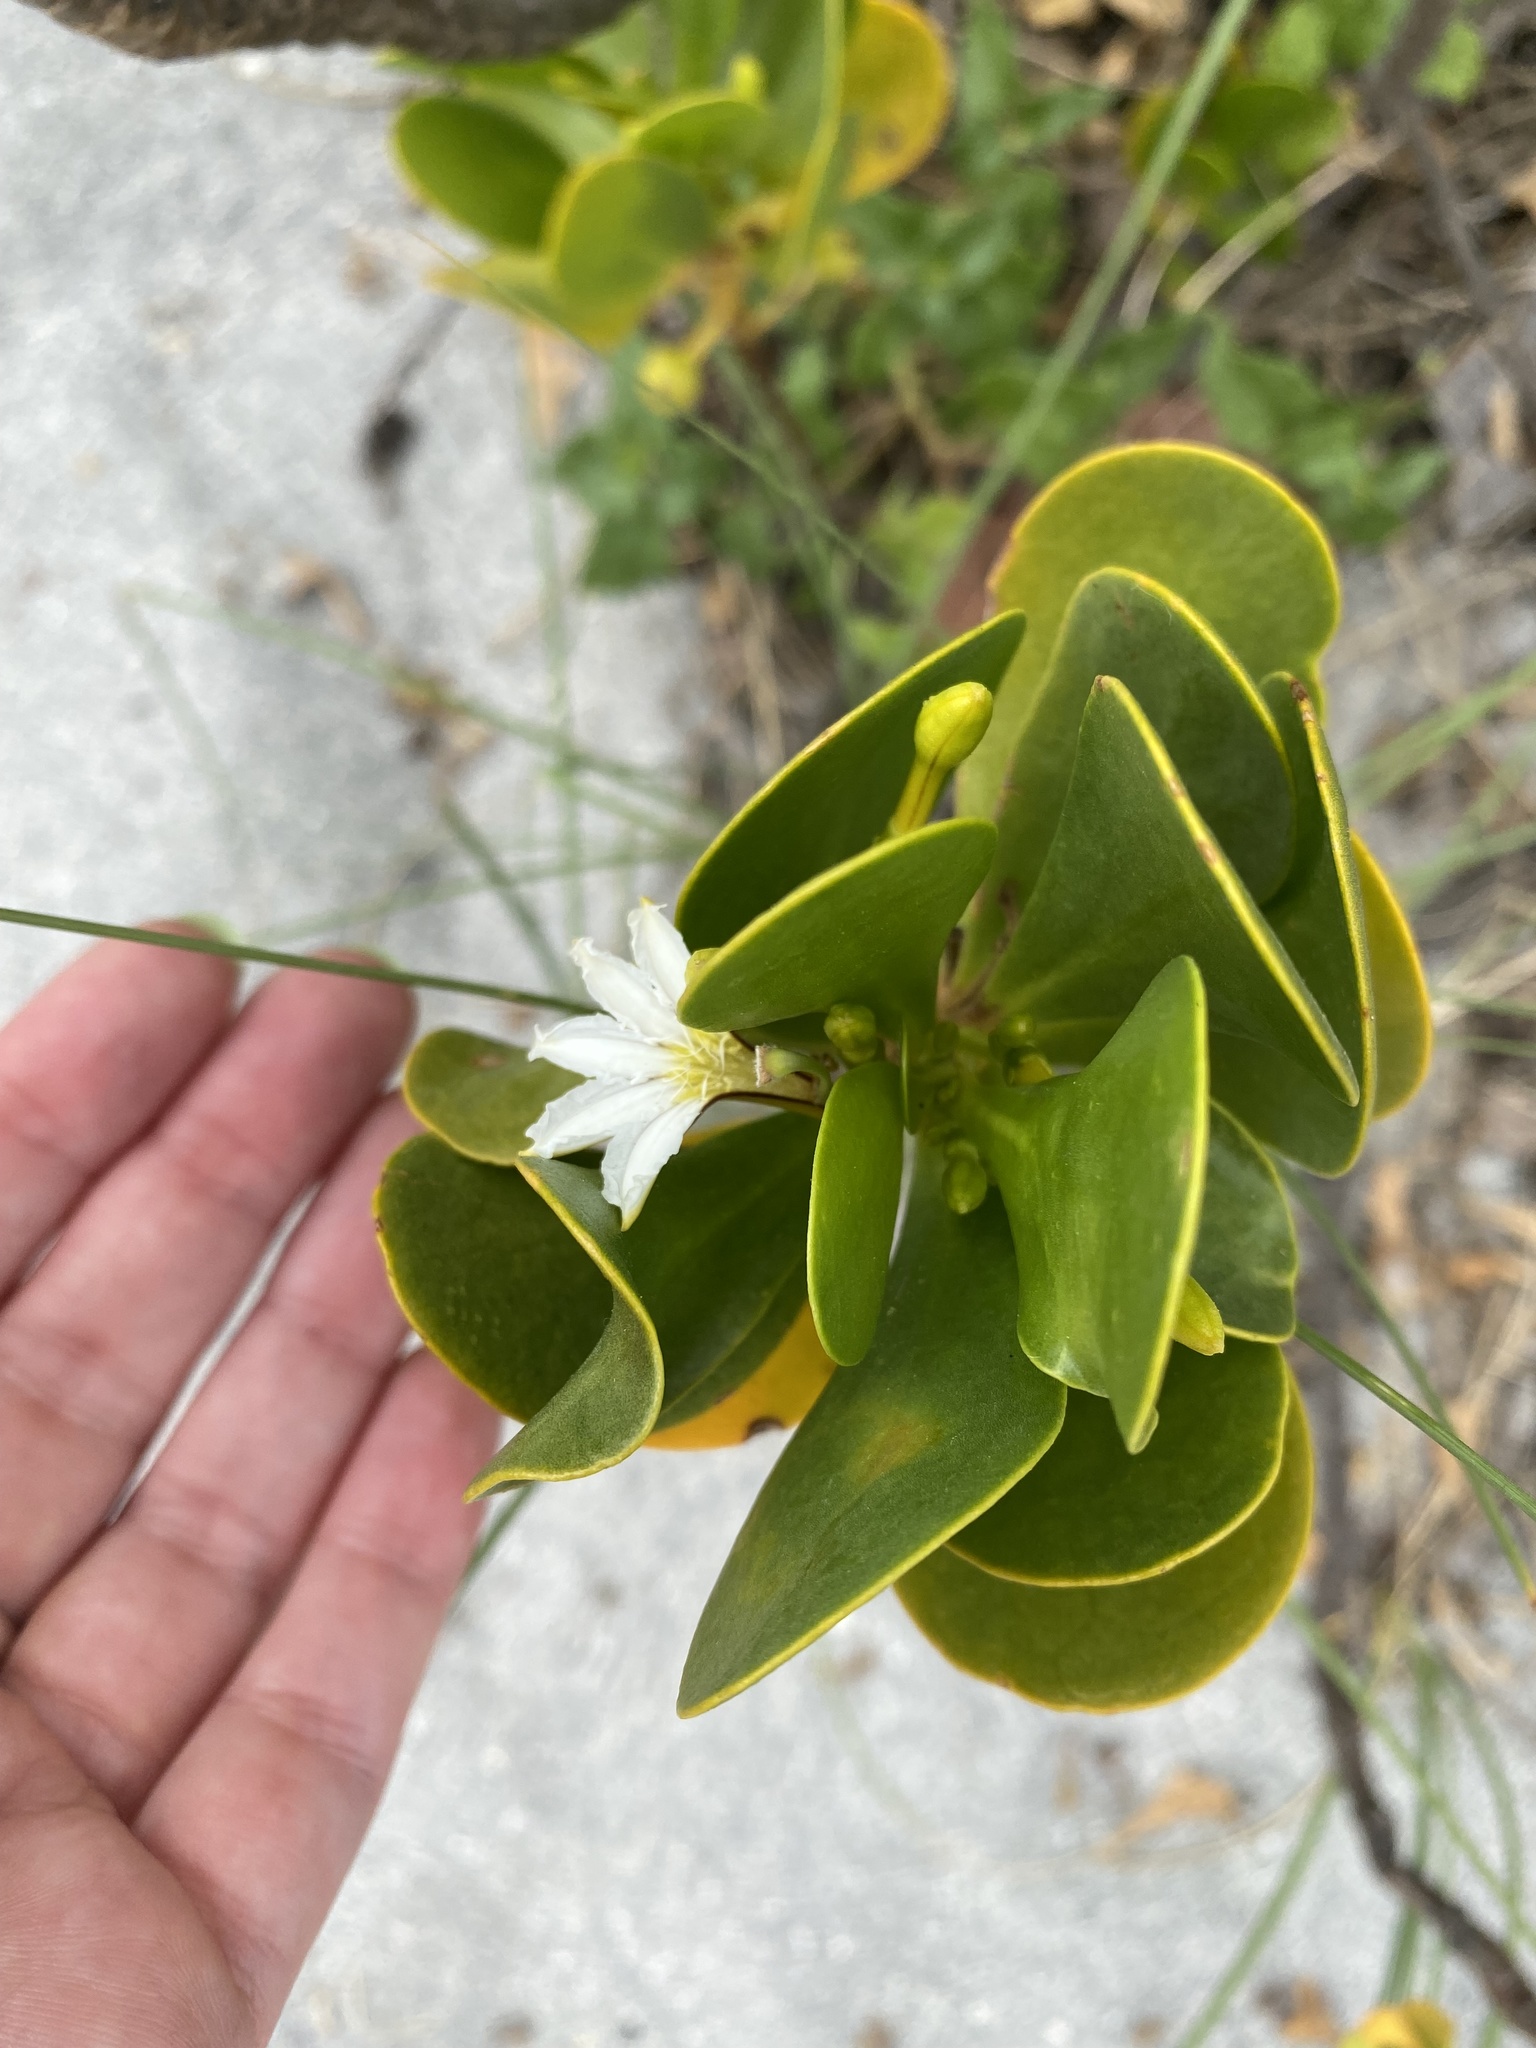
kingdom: Plantae
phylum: Tracheophyta
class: Magnoliopsida
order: Asterales
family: Goodeniaceae
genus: Scaevola
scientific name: Scaevola plumieri
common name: Gull feed
